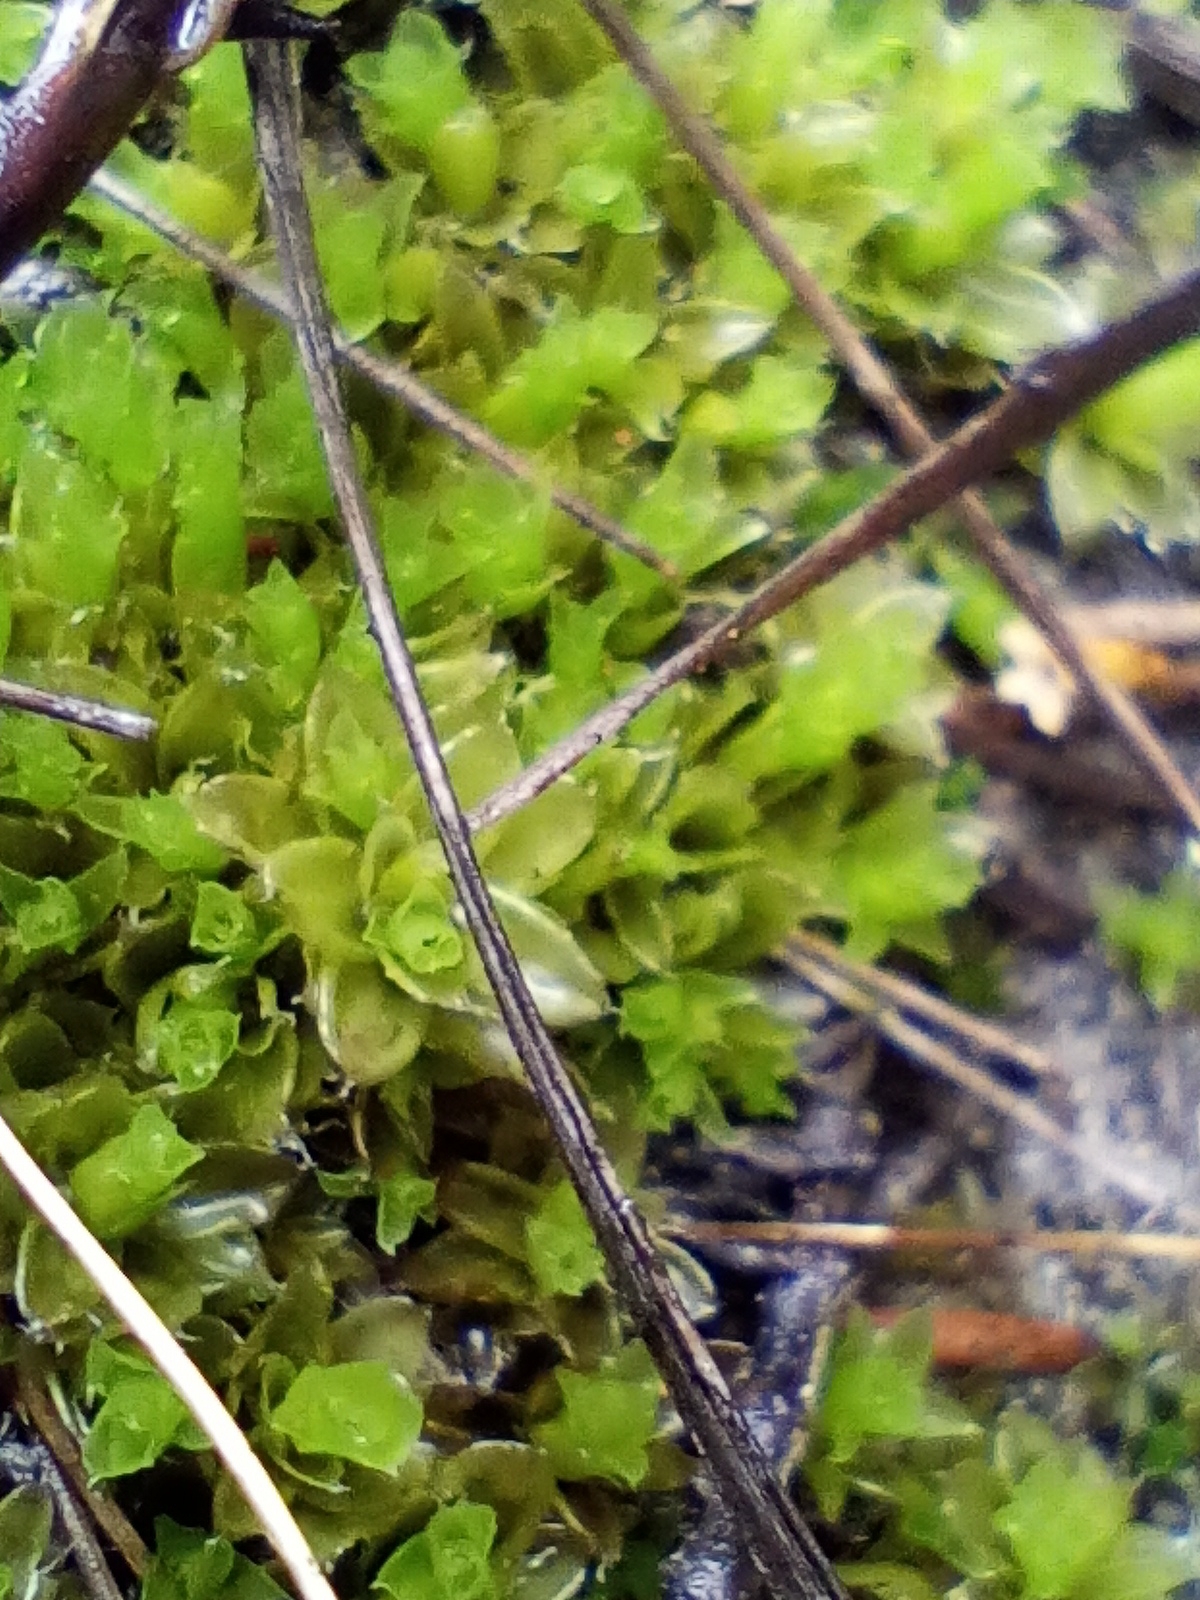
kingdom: Plantae
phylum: Bryophyta
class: Bryopsida
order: Pottiales
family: Pleurophascaceae
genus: Pleurophascum
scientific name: Pleurophascum occidentale
